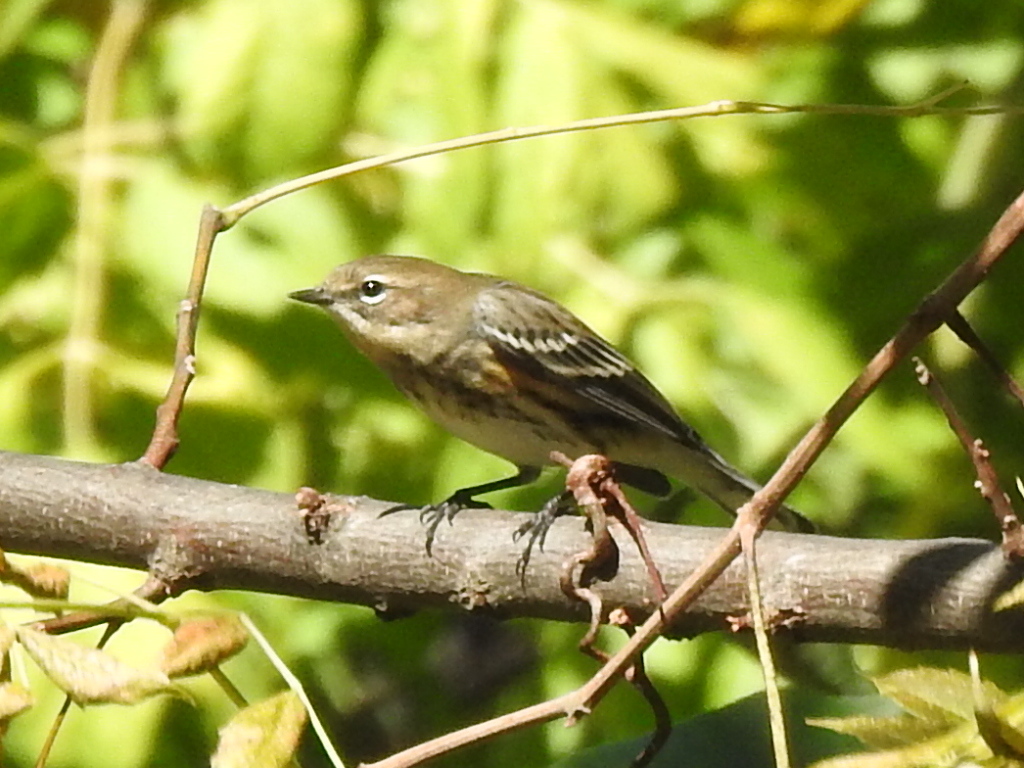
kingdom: Animalia
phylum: Chordata
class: Aves
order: Passeriformes
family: Parulidae
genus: Setophaga
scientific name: Setophaga coronata
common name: Myrtle warbler
